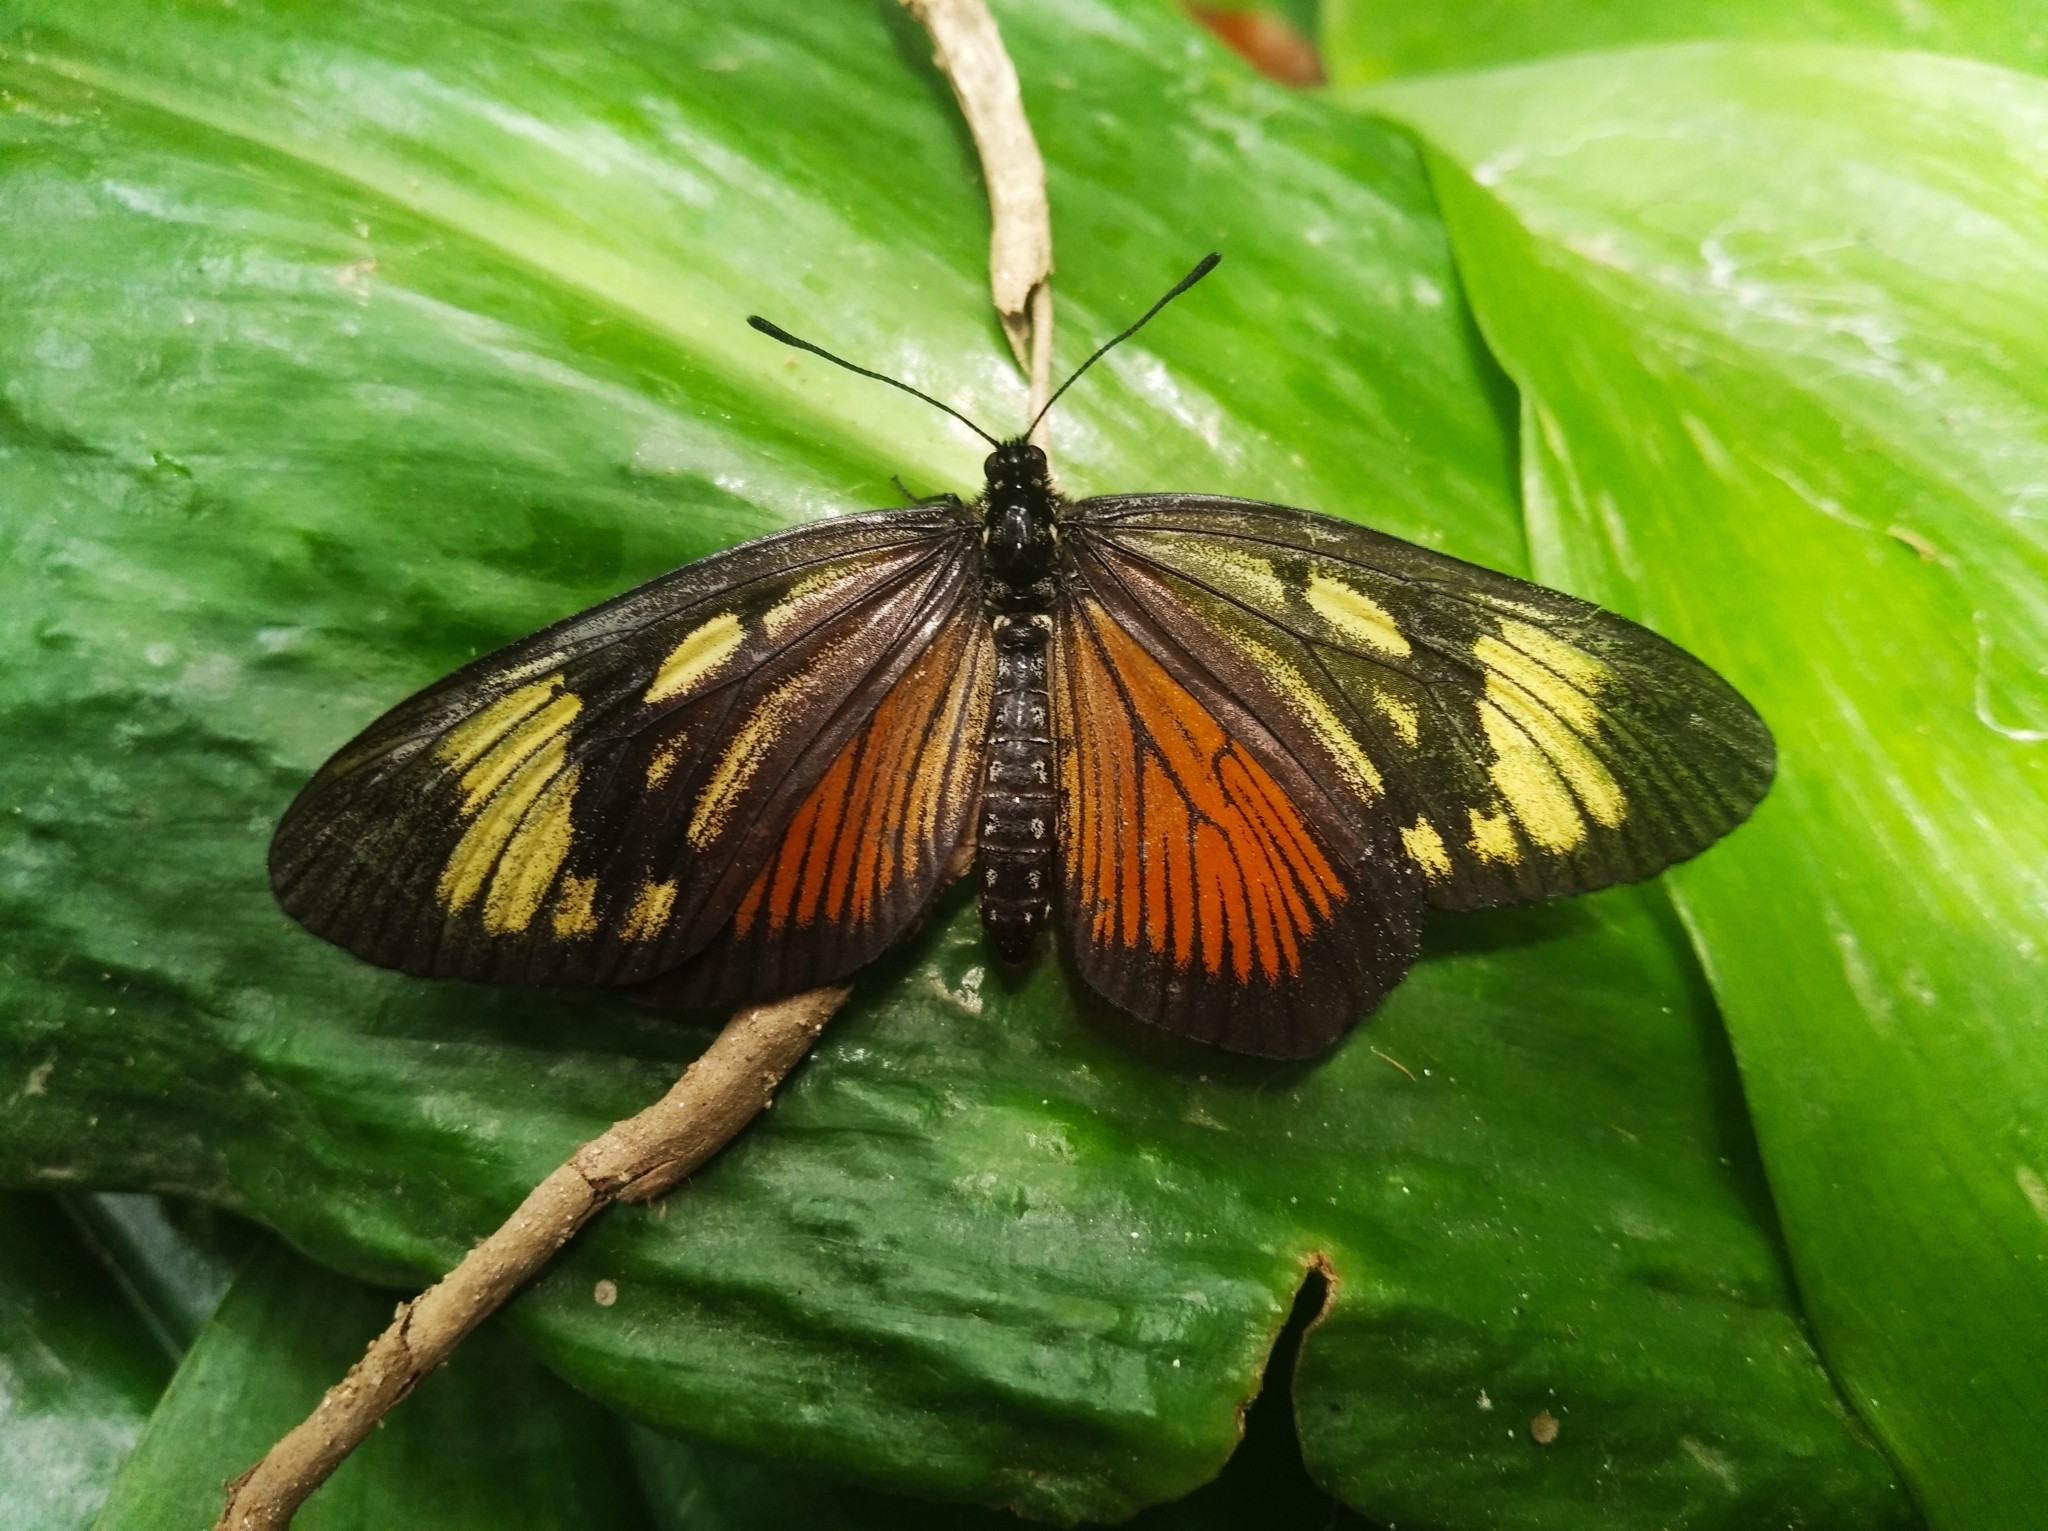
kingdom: Animalia
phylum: Arthropoda
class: Insecta
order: Lepidoptera
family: Nymphalidae
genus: Actinote
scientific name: Actinote thalia
